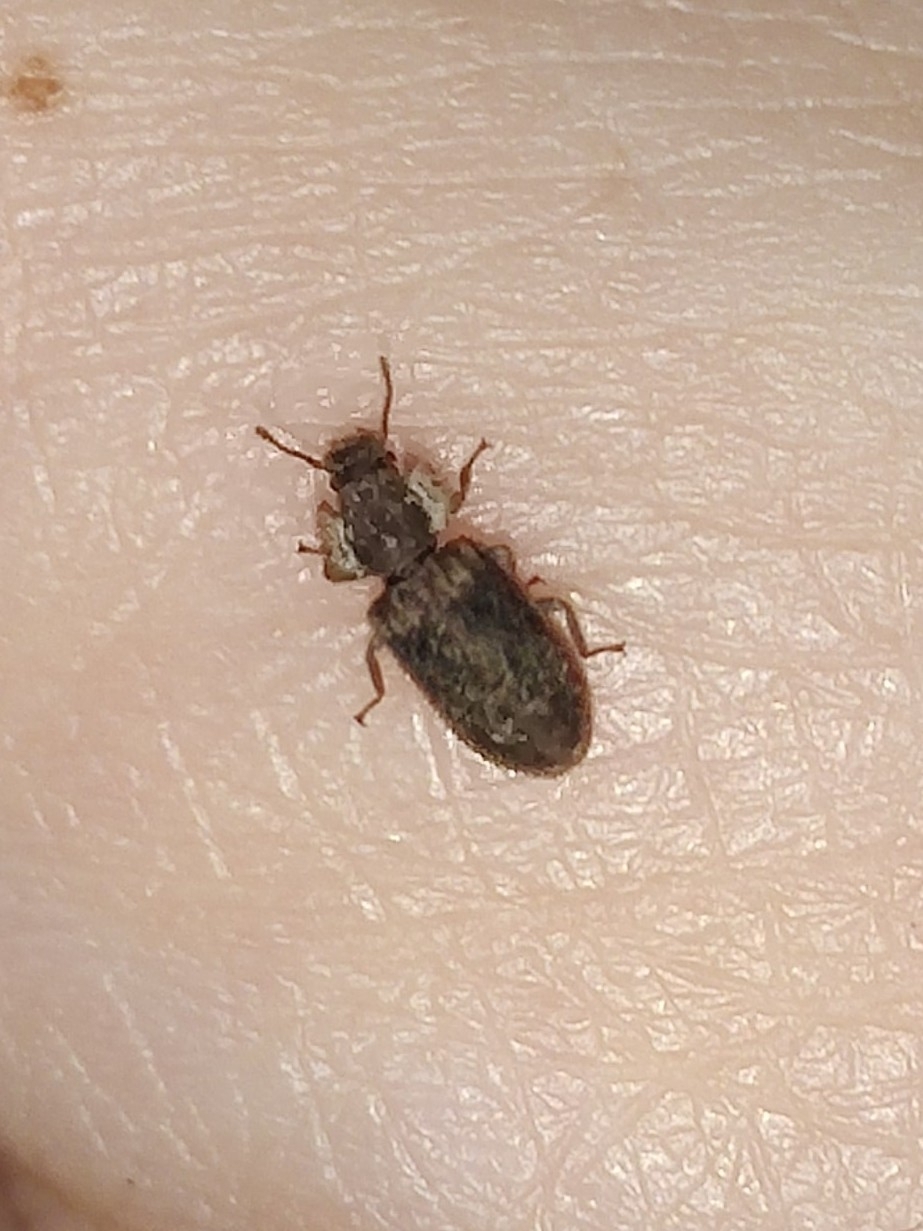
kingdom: Animalia
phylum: Arthropoda
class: Insecta
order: Coleoptera
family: Zopheridae
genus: Endophloeus
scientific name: Endophloeus markovichianus
